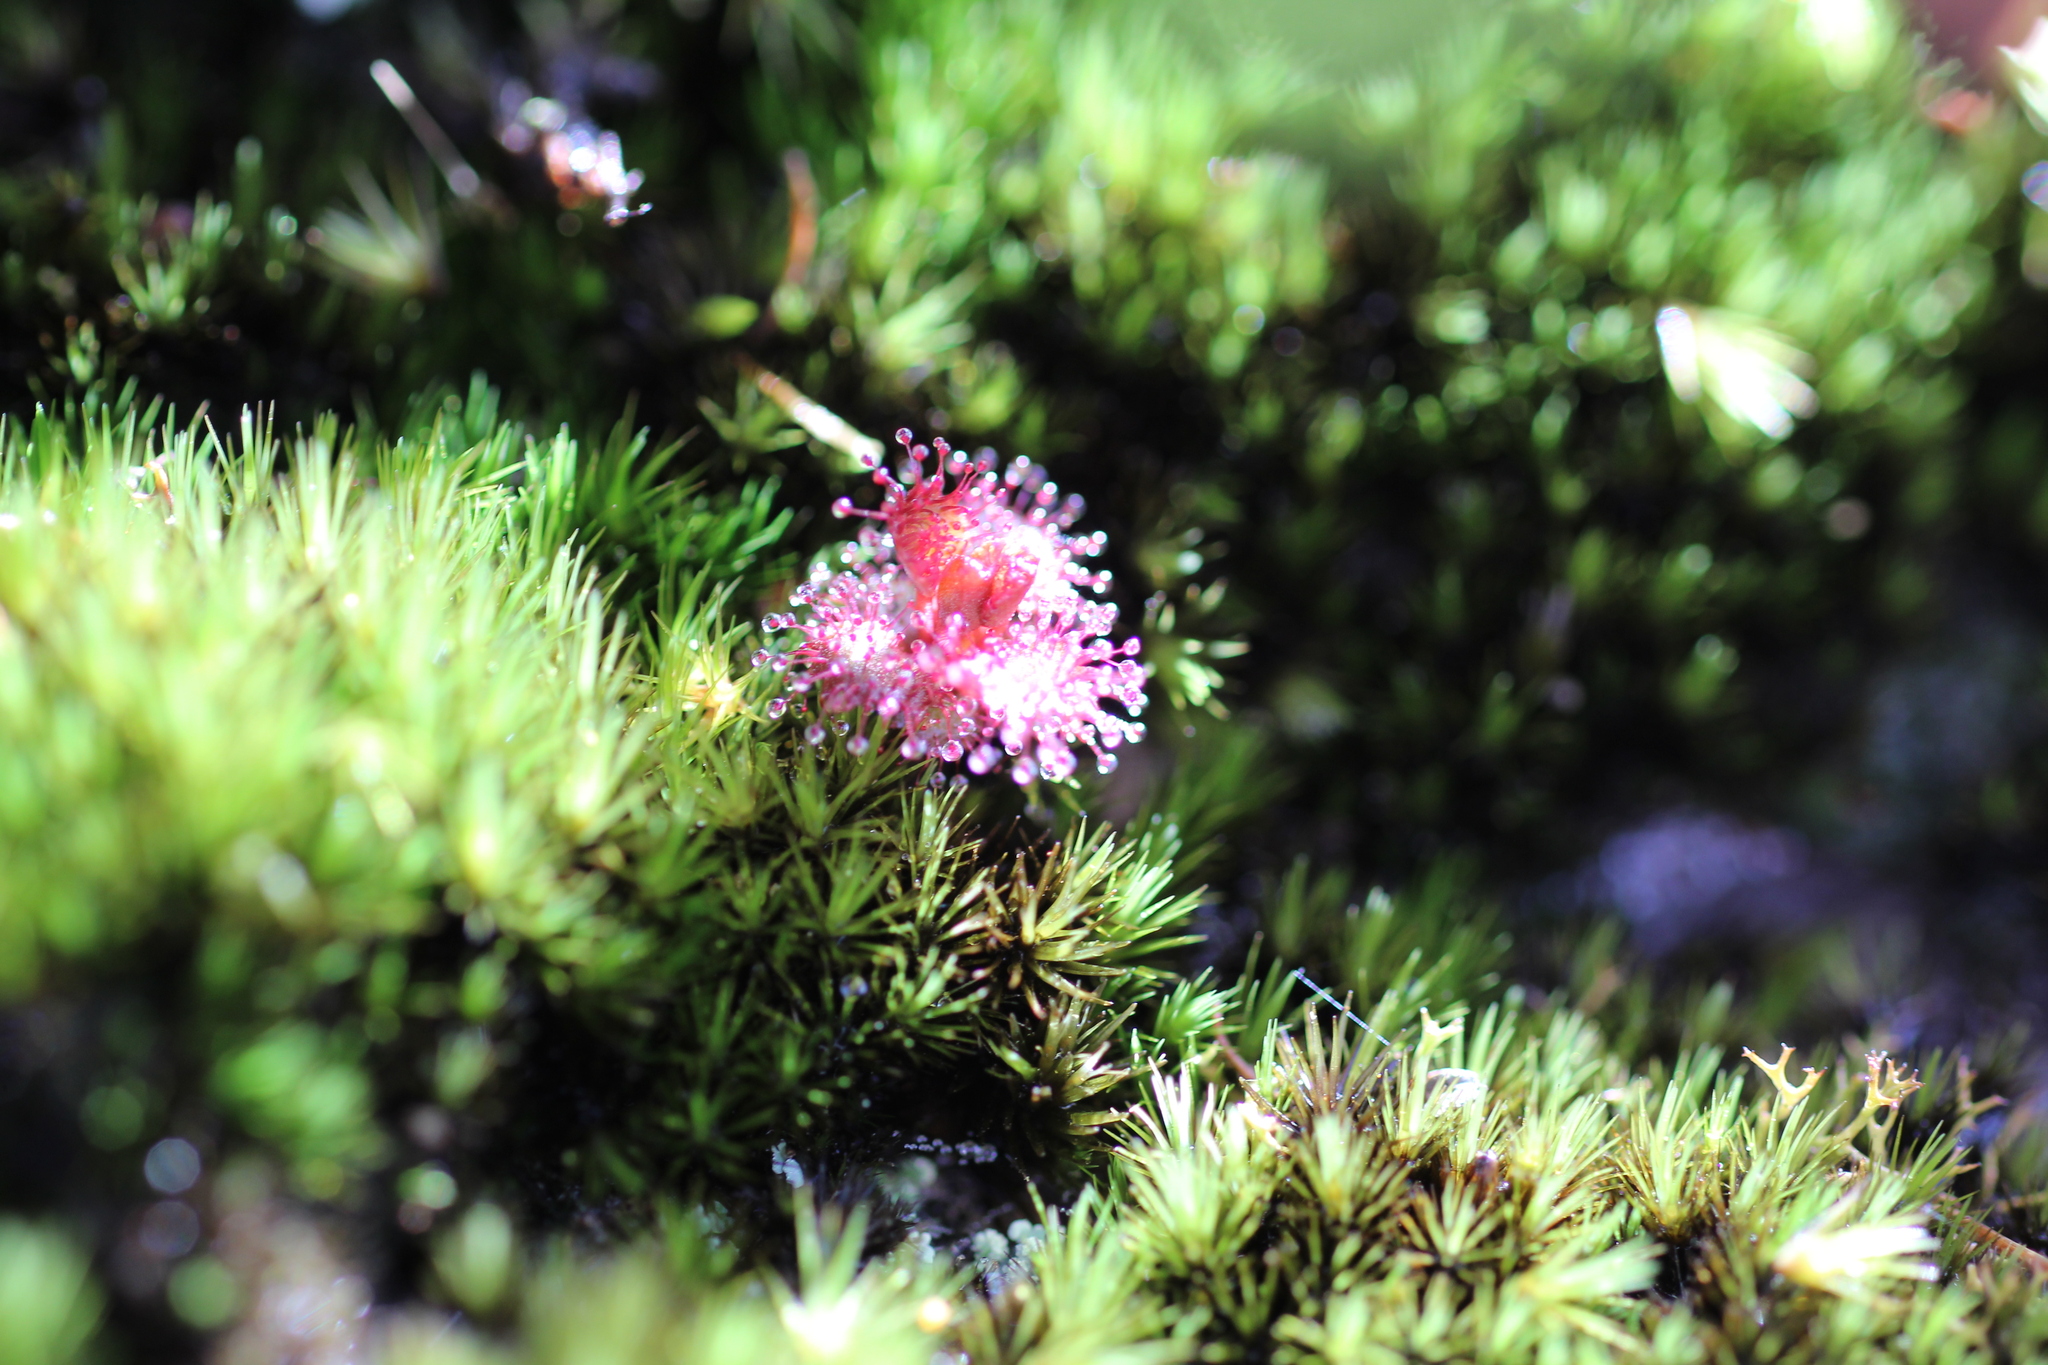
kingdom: Plantae
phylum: Tracheophyta
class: Magnoliopsida
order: Caryophyllales
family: Droseraceae
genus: Drosera
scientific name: Drosera monticola
